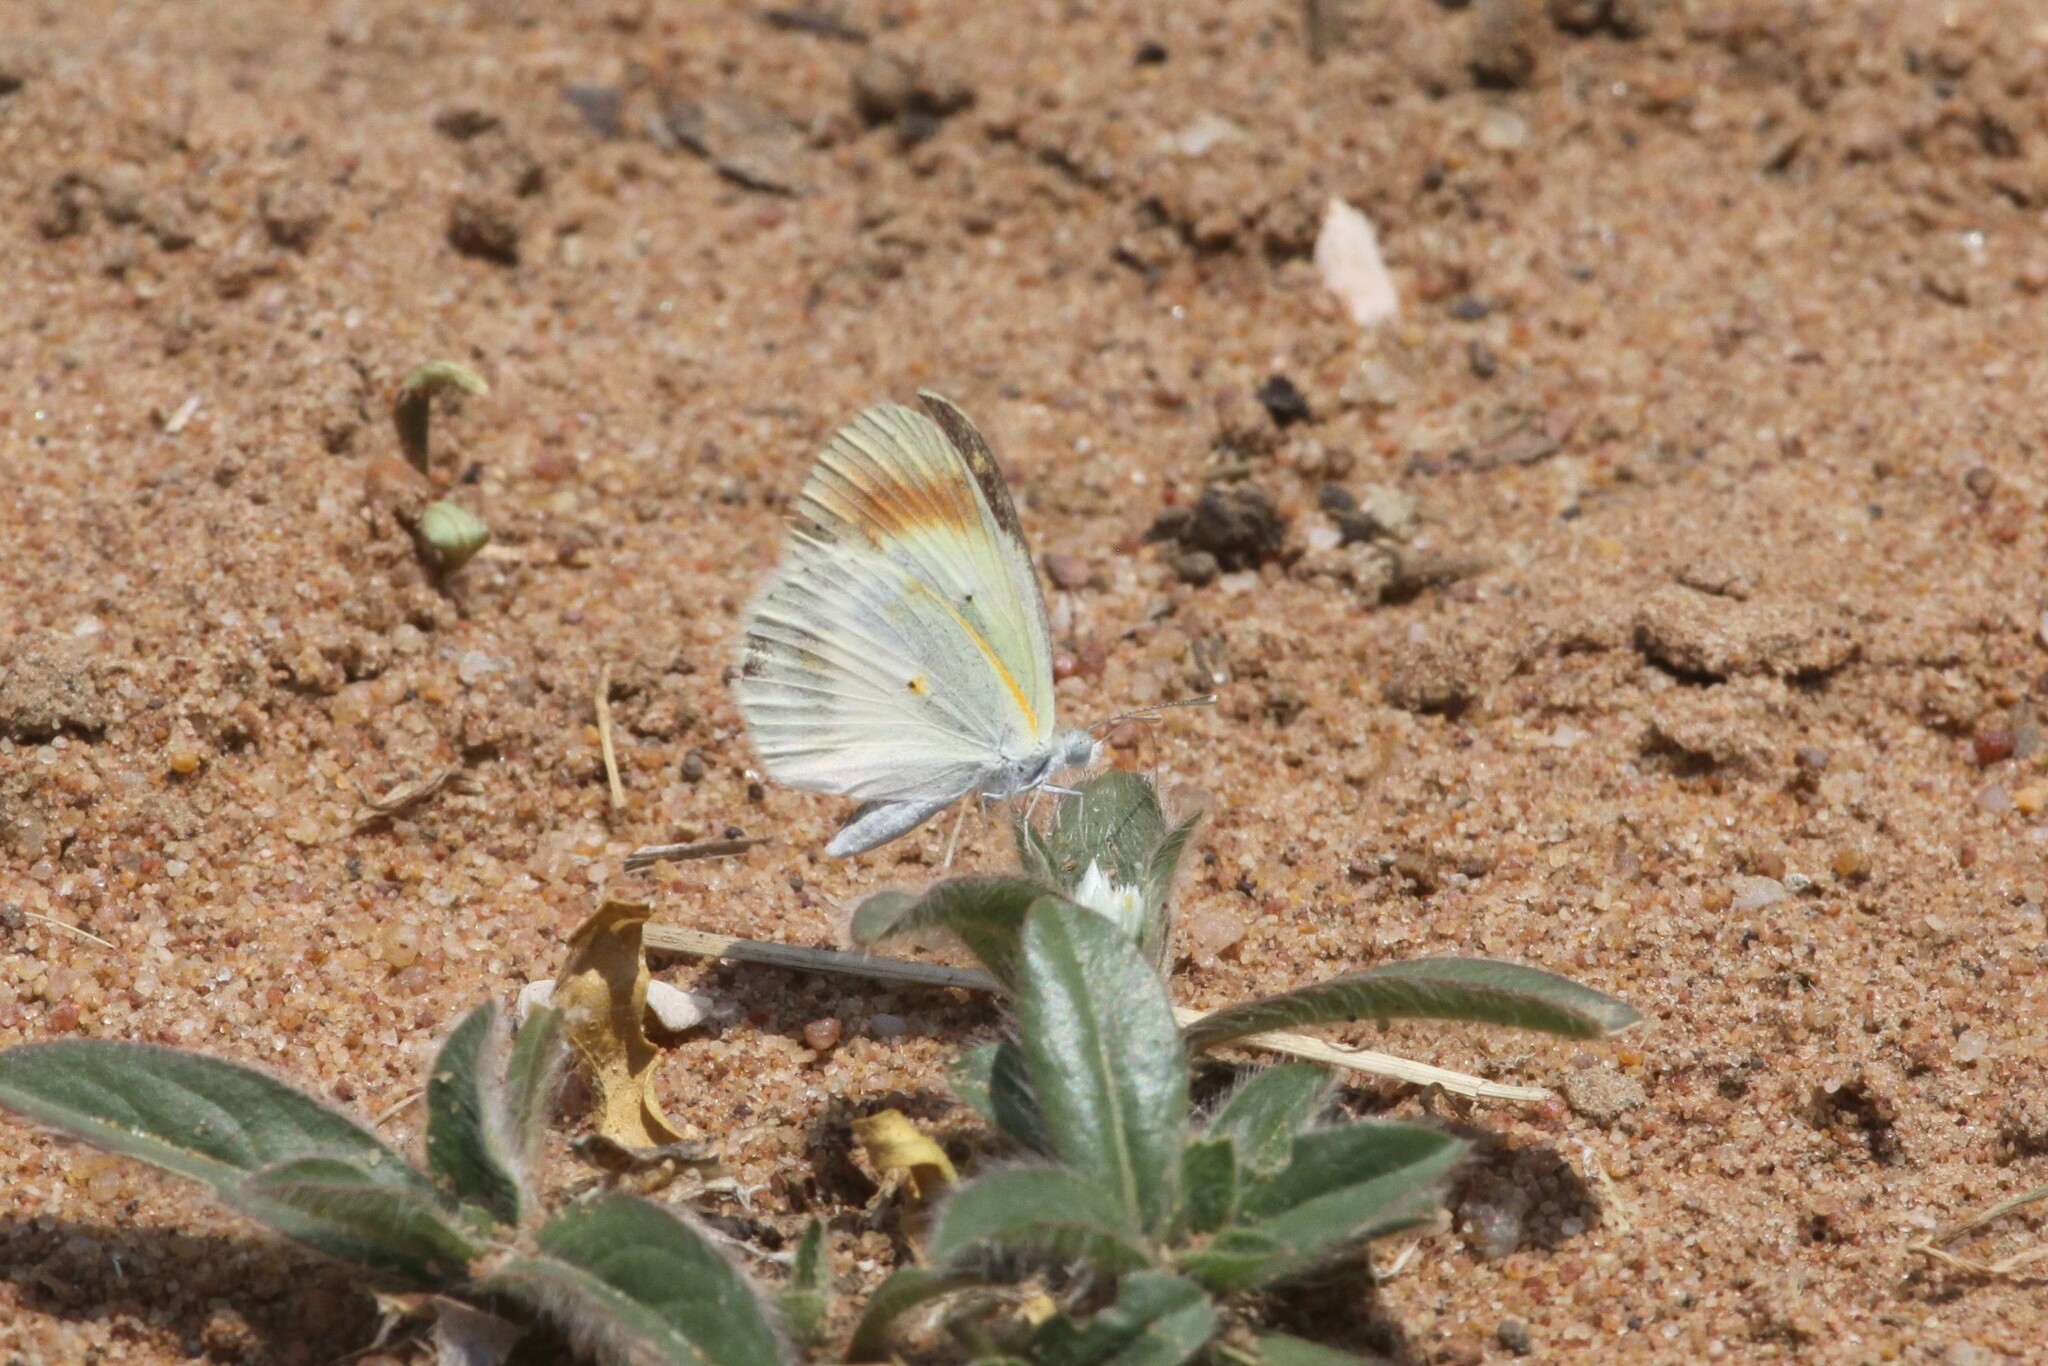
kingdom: Animalia
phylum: Arthropoda
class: Insecta
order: Lepidoptera
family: Pieridae
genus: Colotis
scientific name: Colotis evagore
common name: Desert orange-tip
